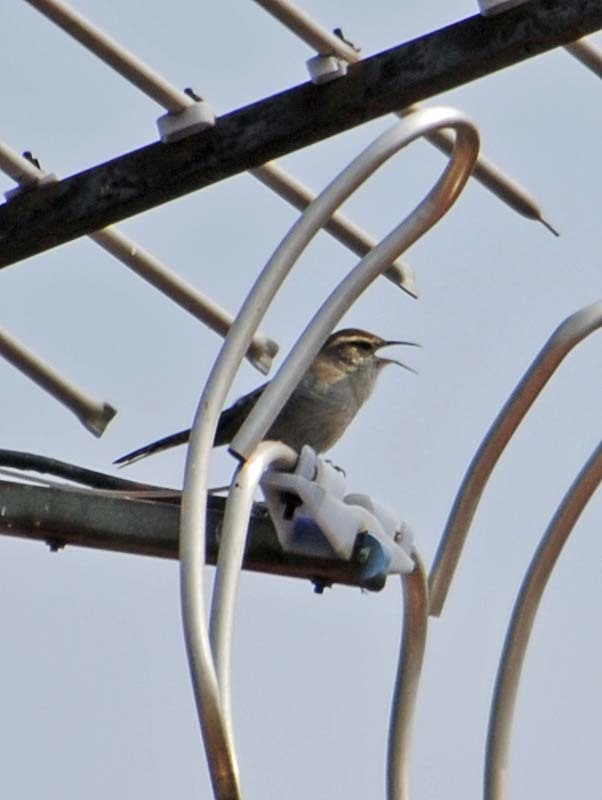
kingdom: Animalia
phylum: Chordata
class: Aves
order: Passeriformes
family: Troglodytidae
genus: Thryomanes
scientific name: Thryomanes bewickii
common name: Bewick's wren
